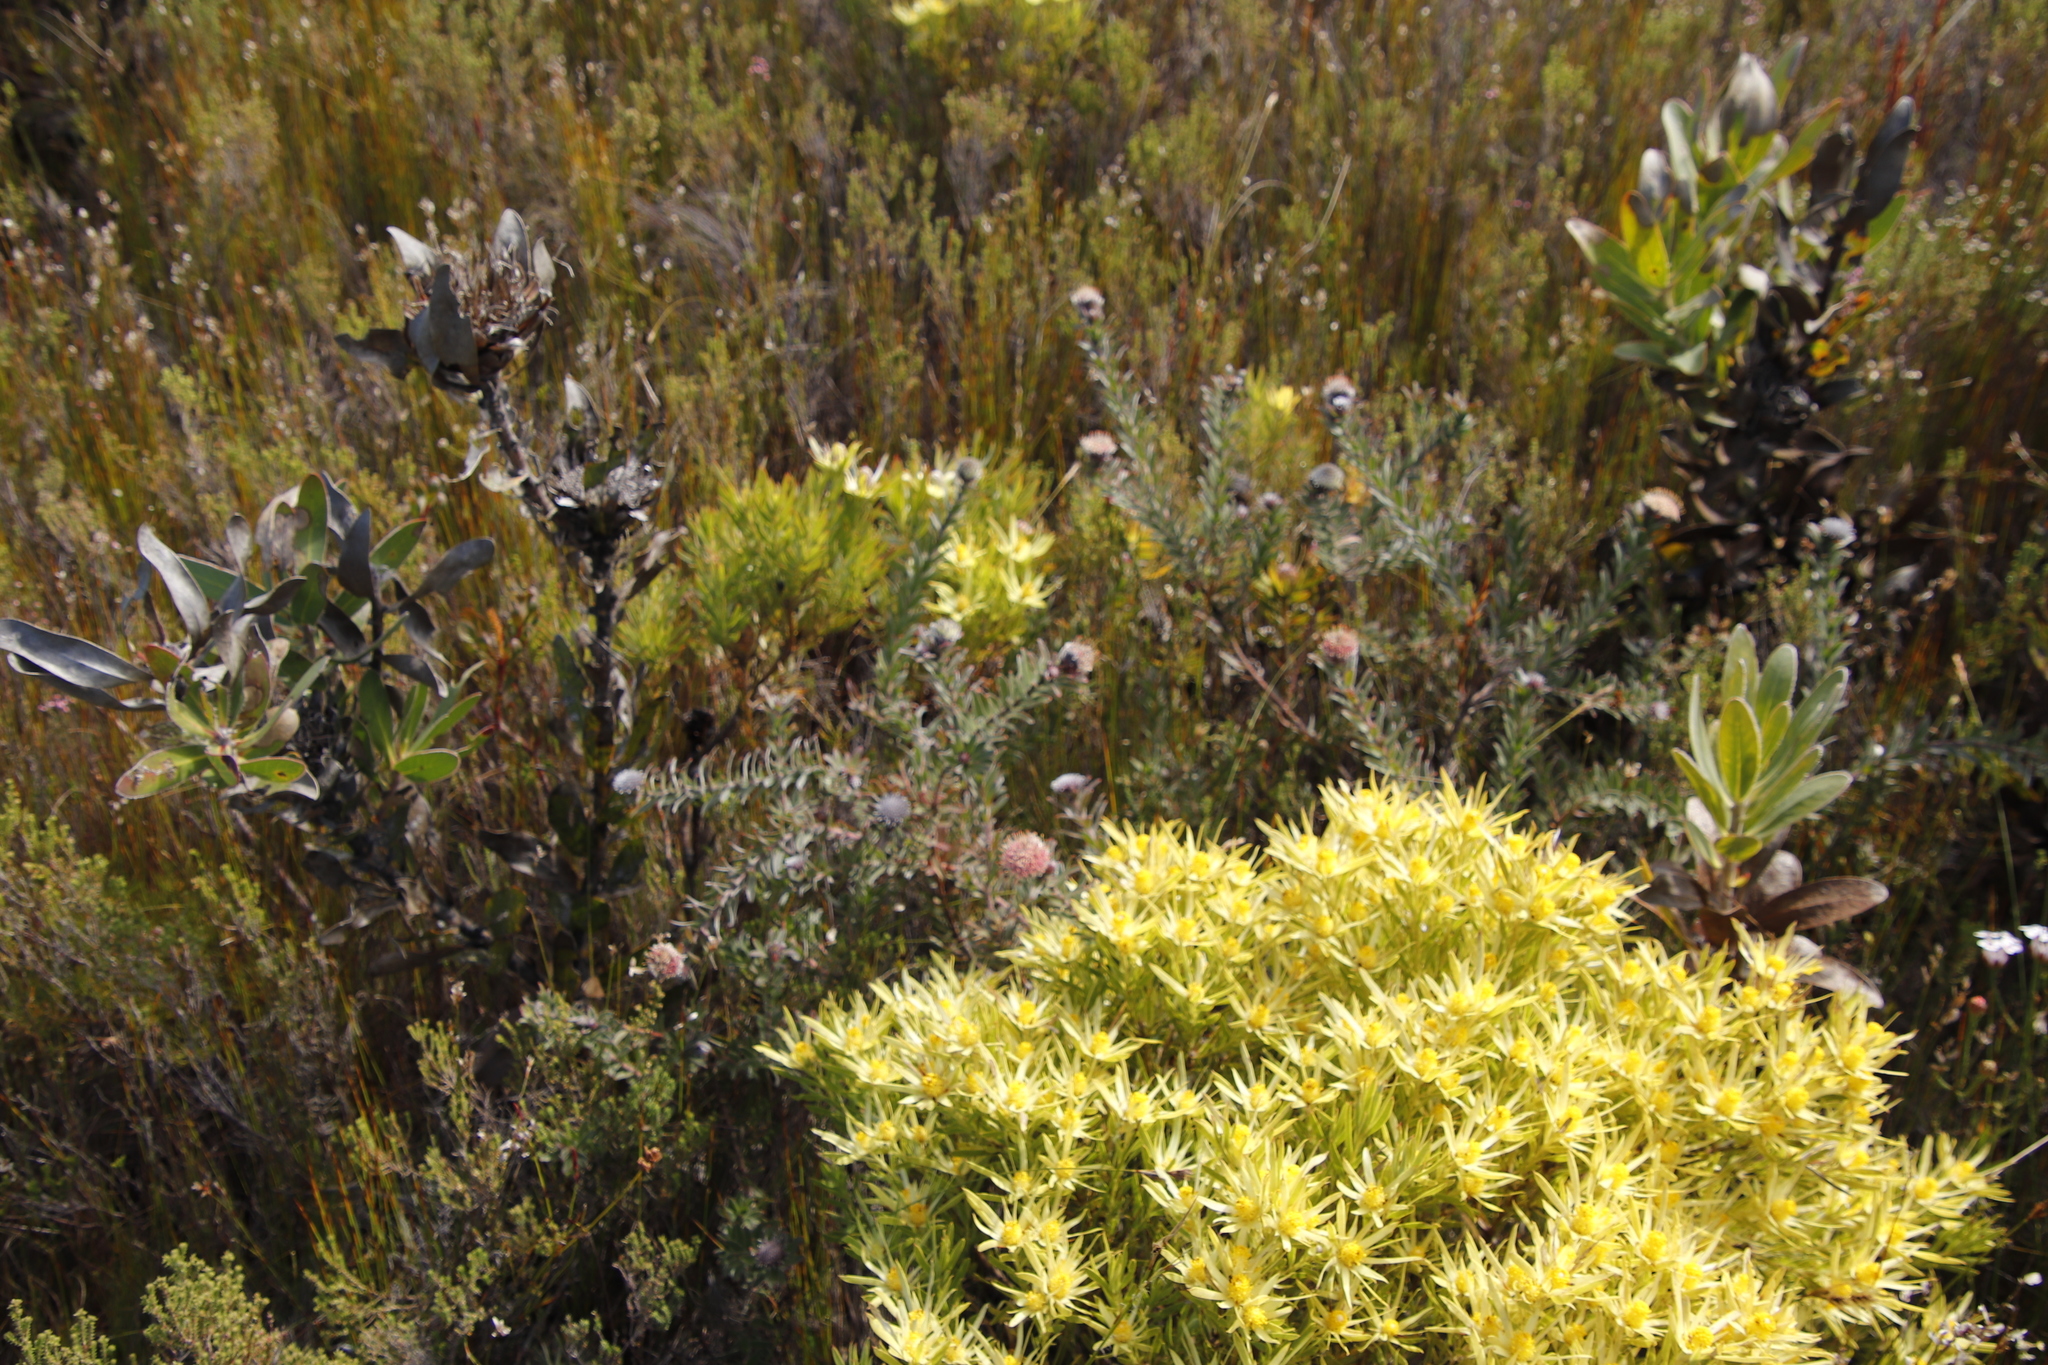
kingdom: Plantae
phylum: Tracheophyta
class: Magnoliopsida
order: Proteales
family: Proteaceae
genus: Leucospermum
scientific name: Leucospermum
